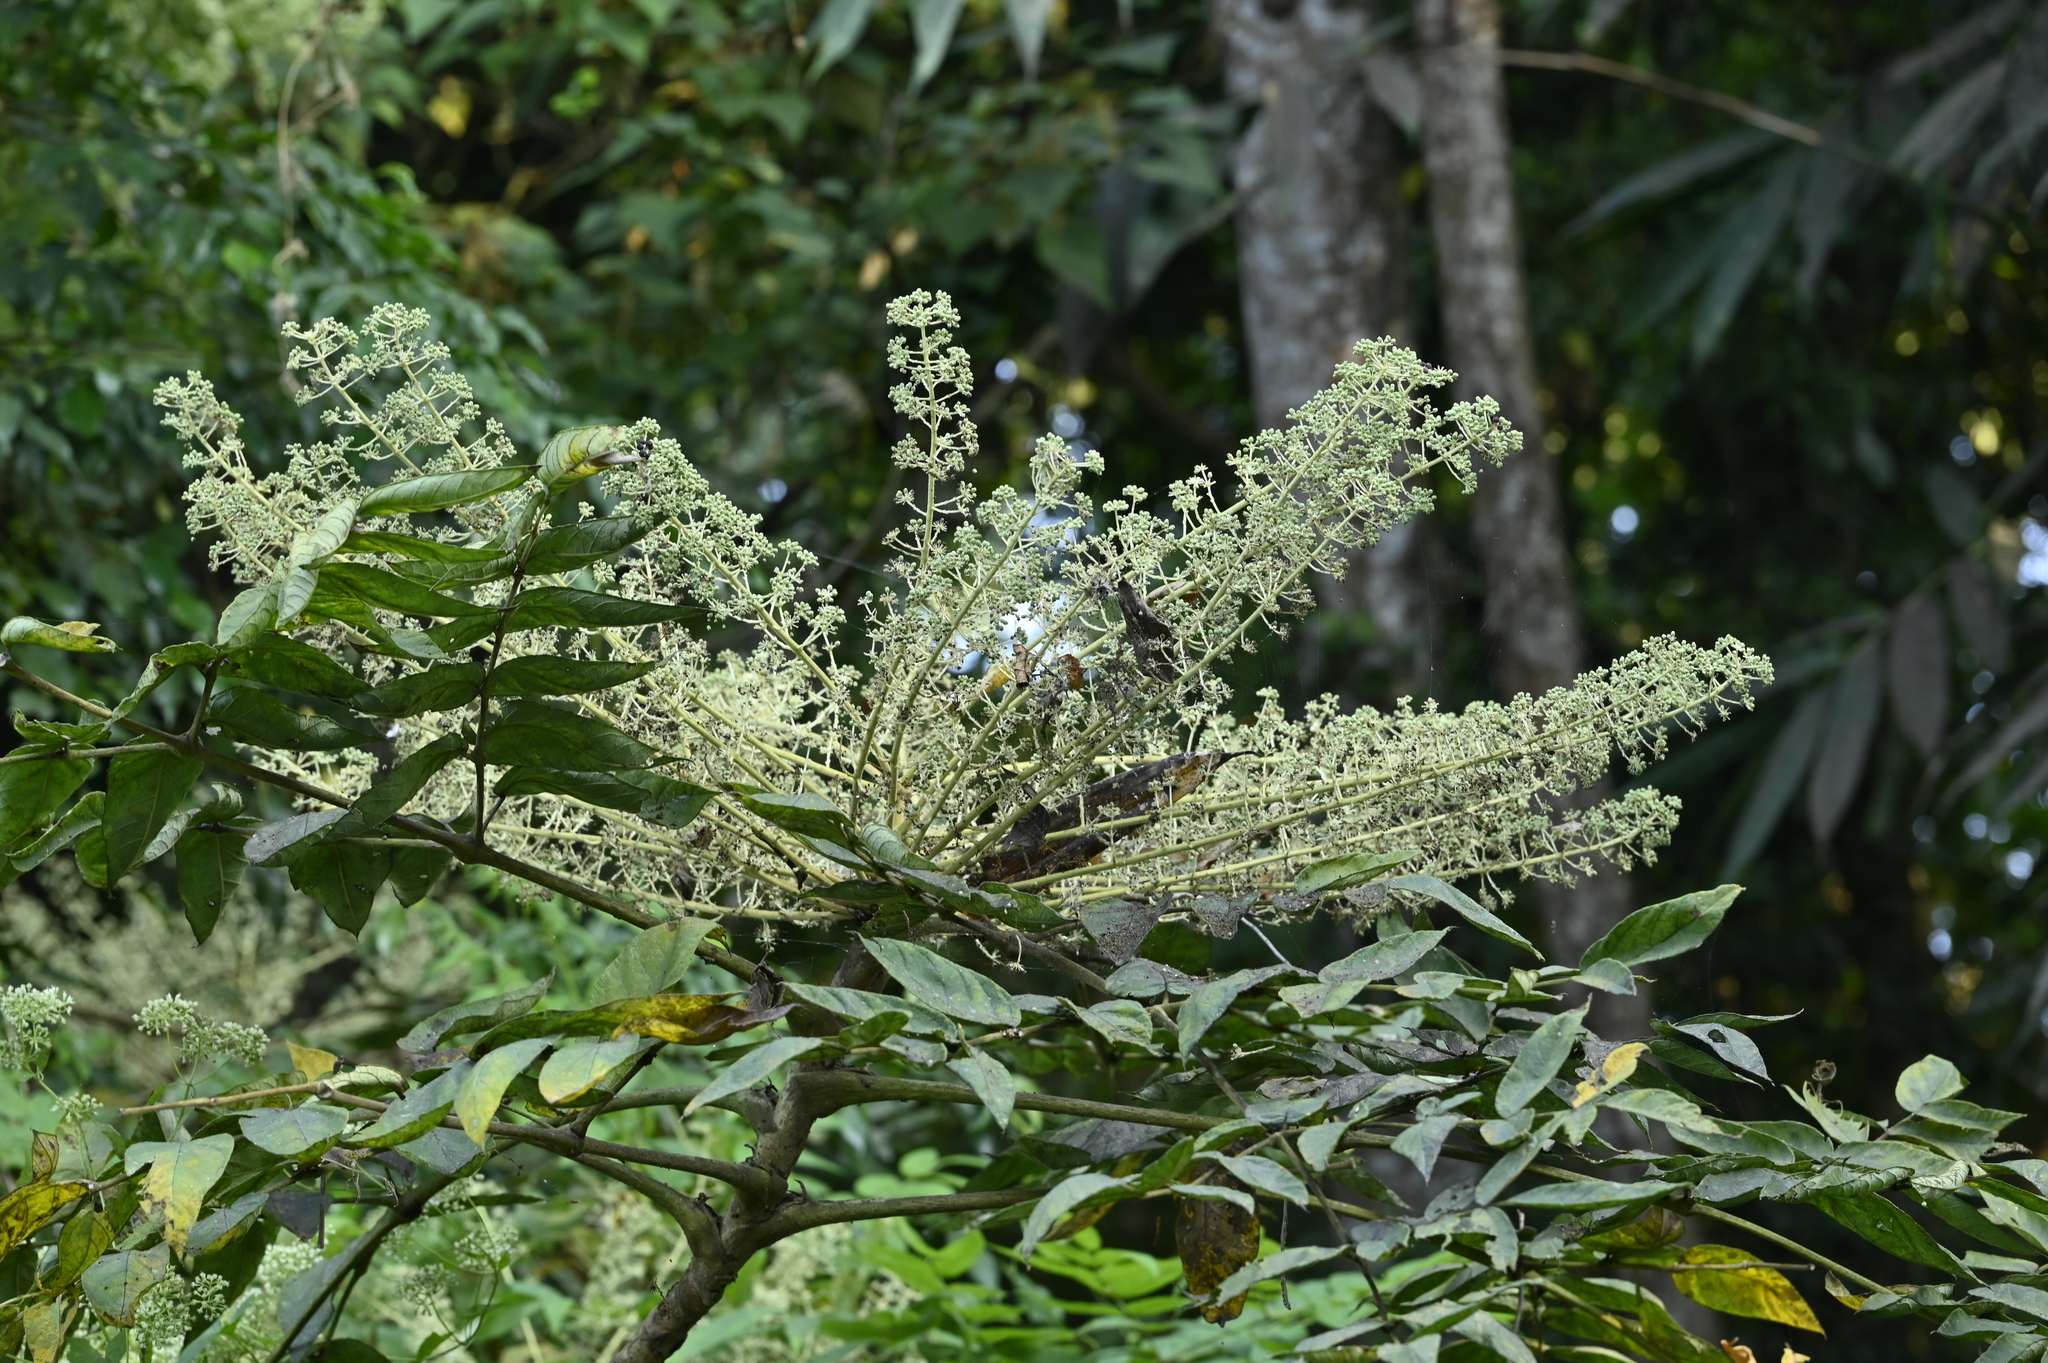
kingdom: Plantae
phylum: Tracheophyta
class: Magnoliopsida
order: Apiales
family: Araliaceae
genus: Aralia
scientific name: Aralia decaisneana
